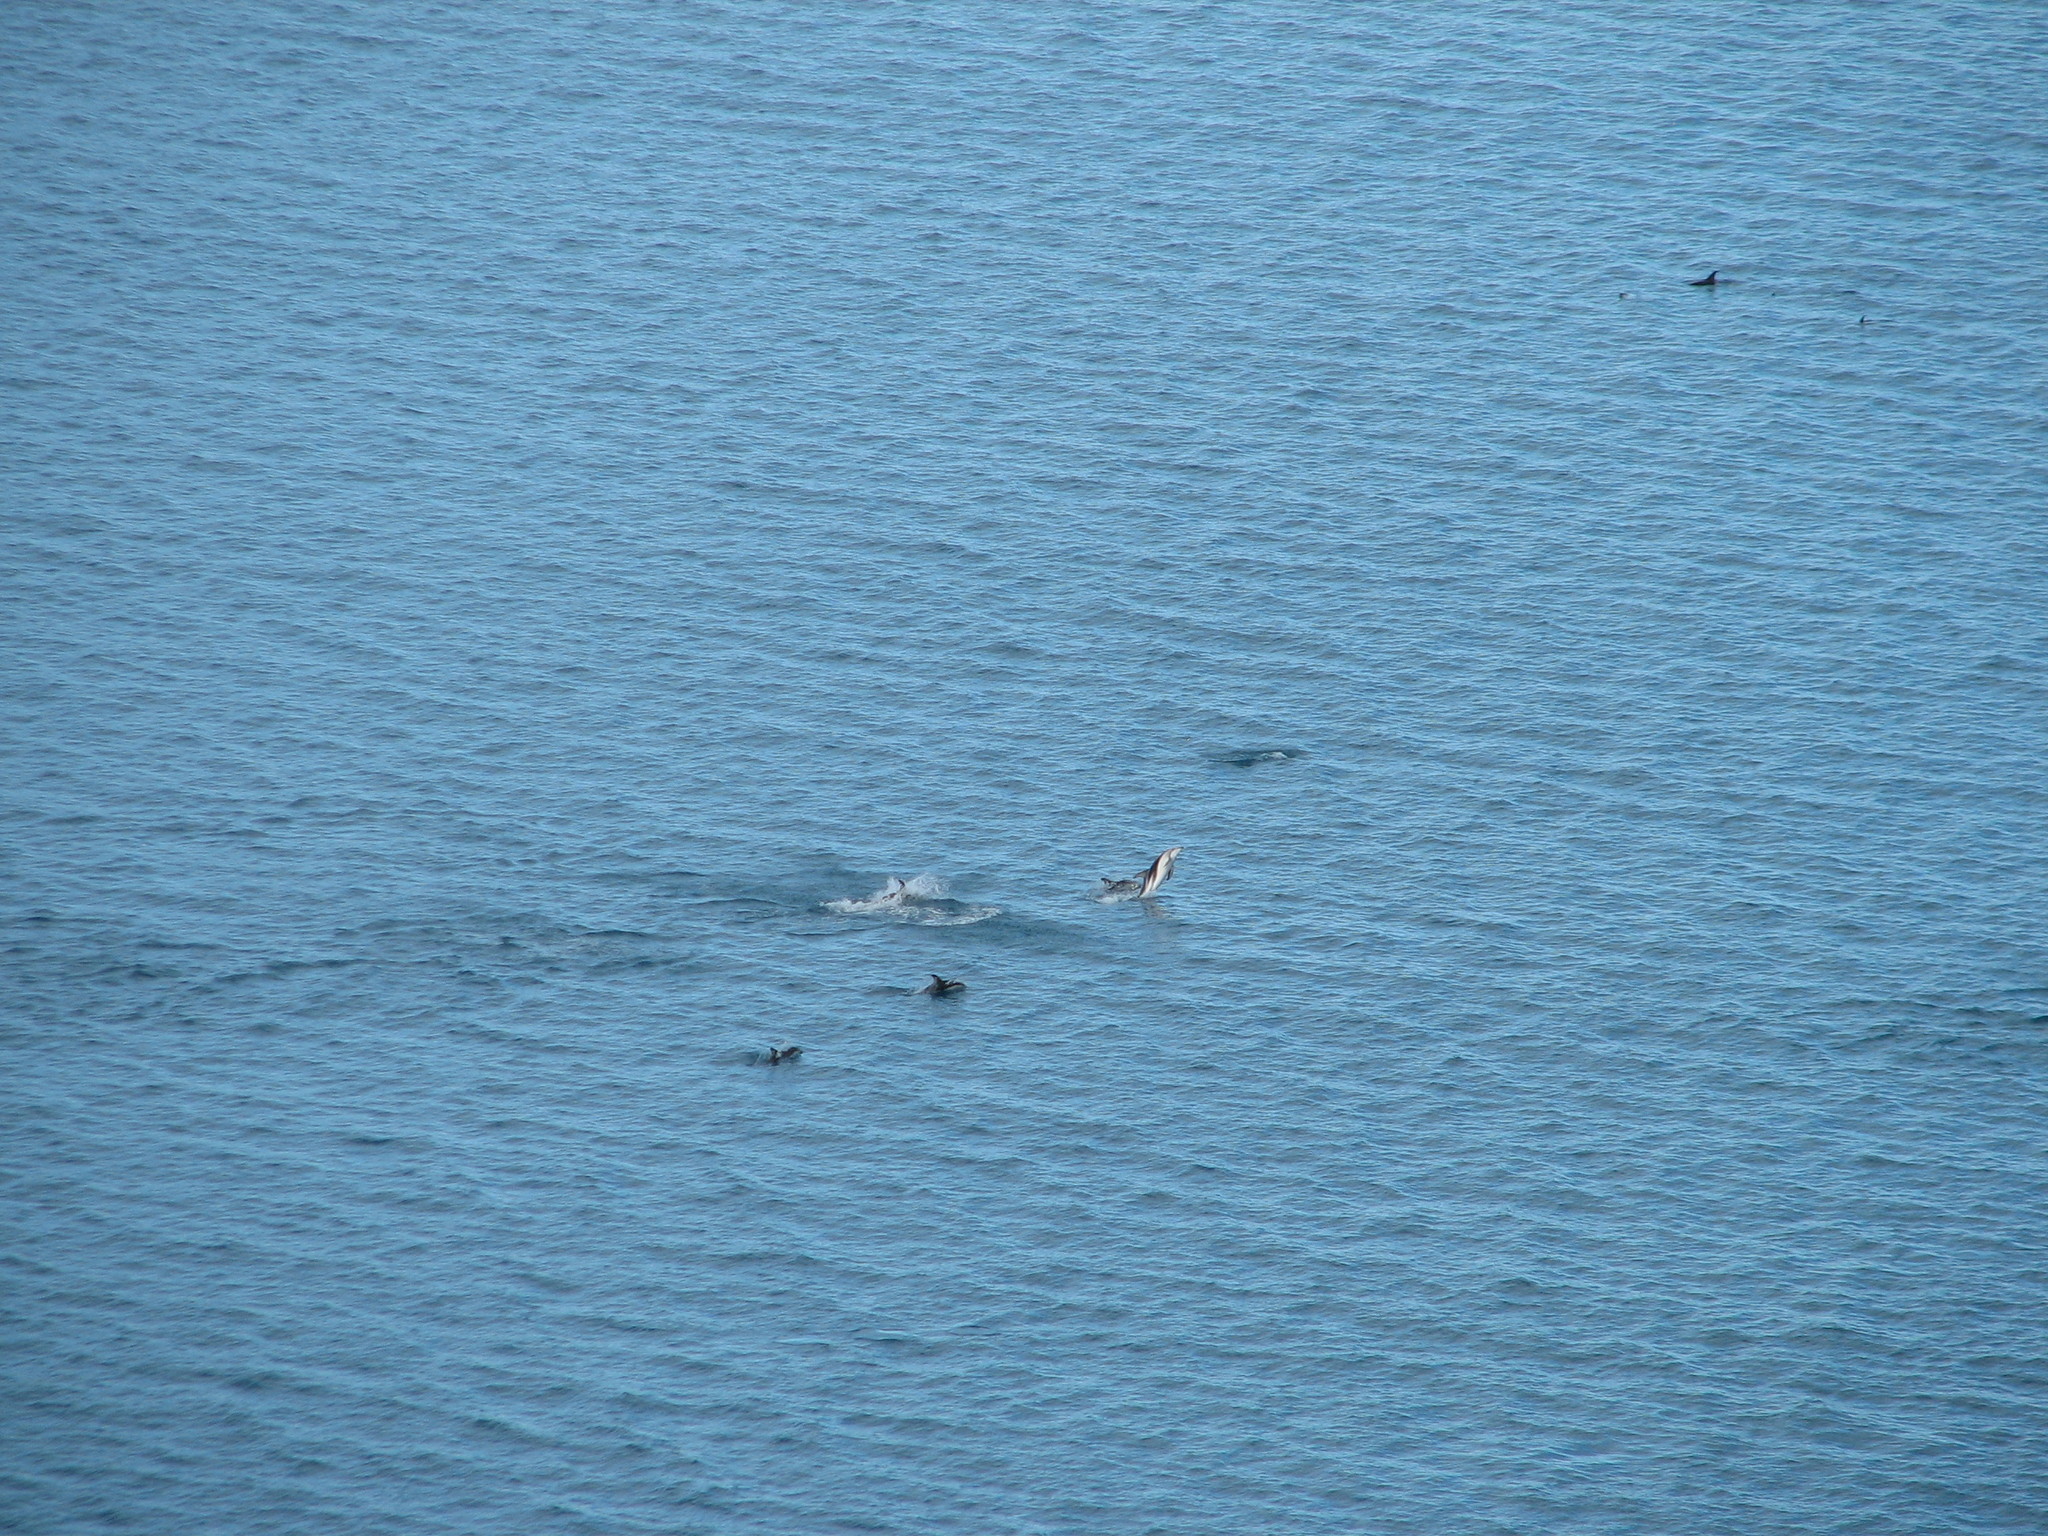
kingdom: Animalia
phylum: Chordata
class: Mammalia
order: Cetacea
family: Delphinidae
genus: Lagenorhynchus
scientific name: Lagenorhynchus obscurus
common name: Dusky dolphin
